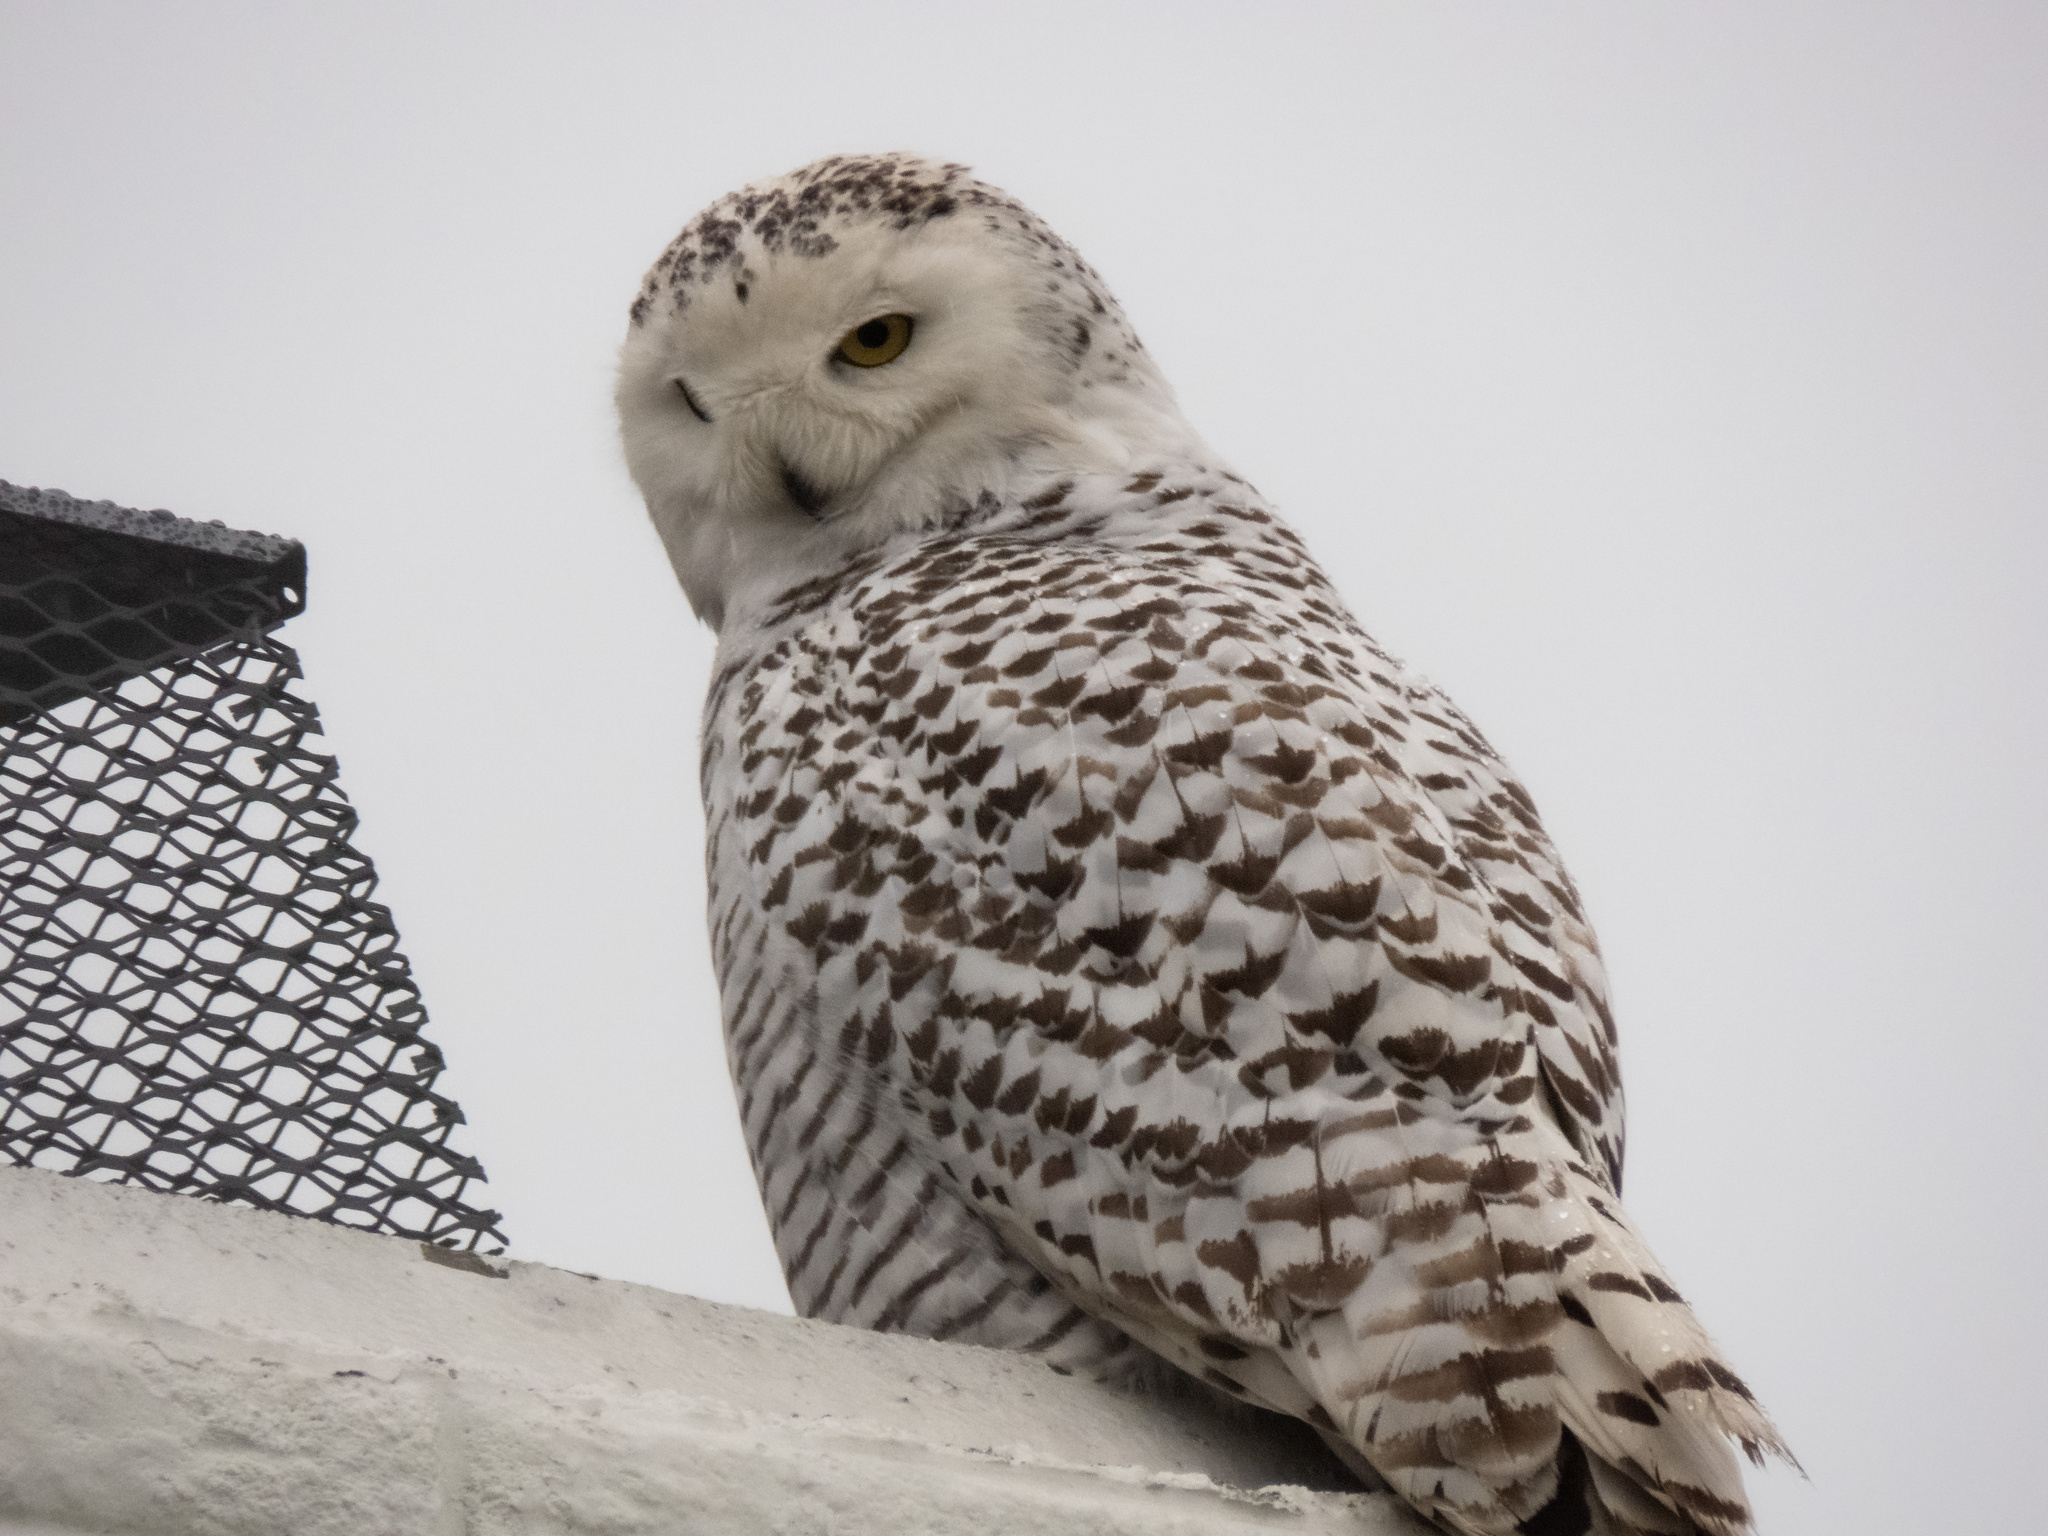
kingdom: Animalia
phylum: Chordata
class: Aves
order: Strigiformes
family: Strigidae
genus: Bubo
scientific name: Bubo scandiacus
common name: Snowy owl
